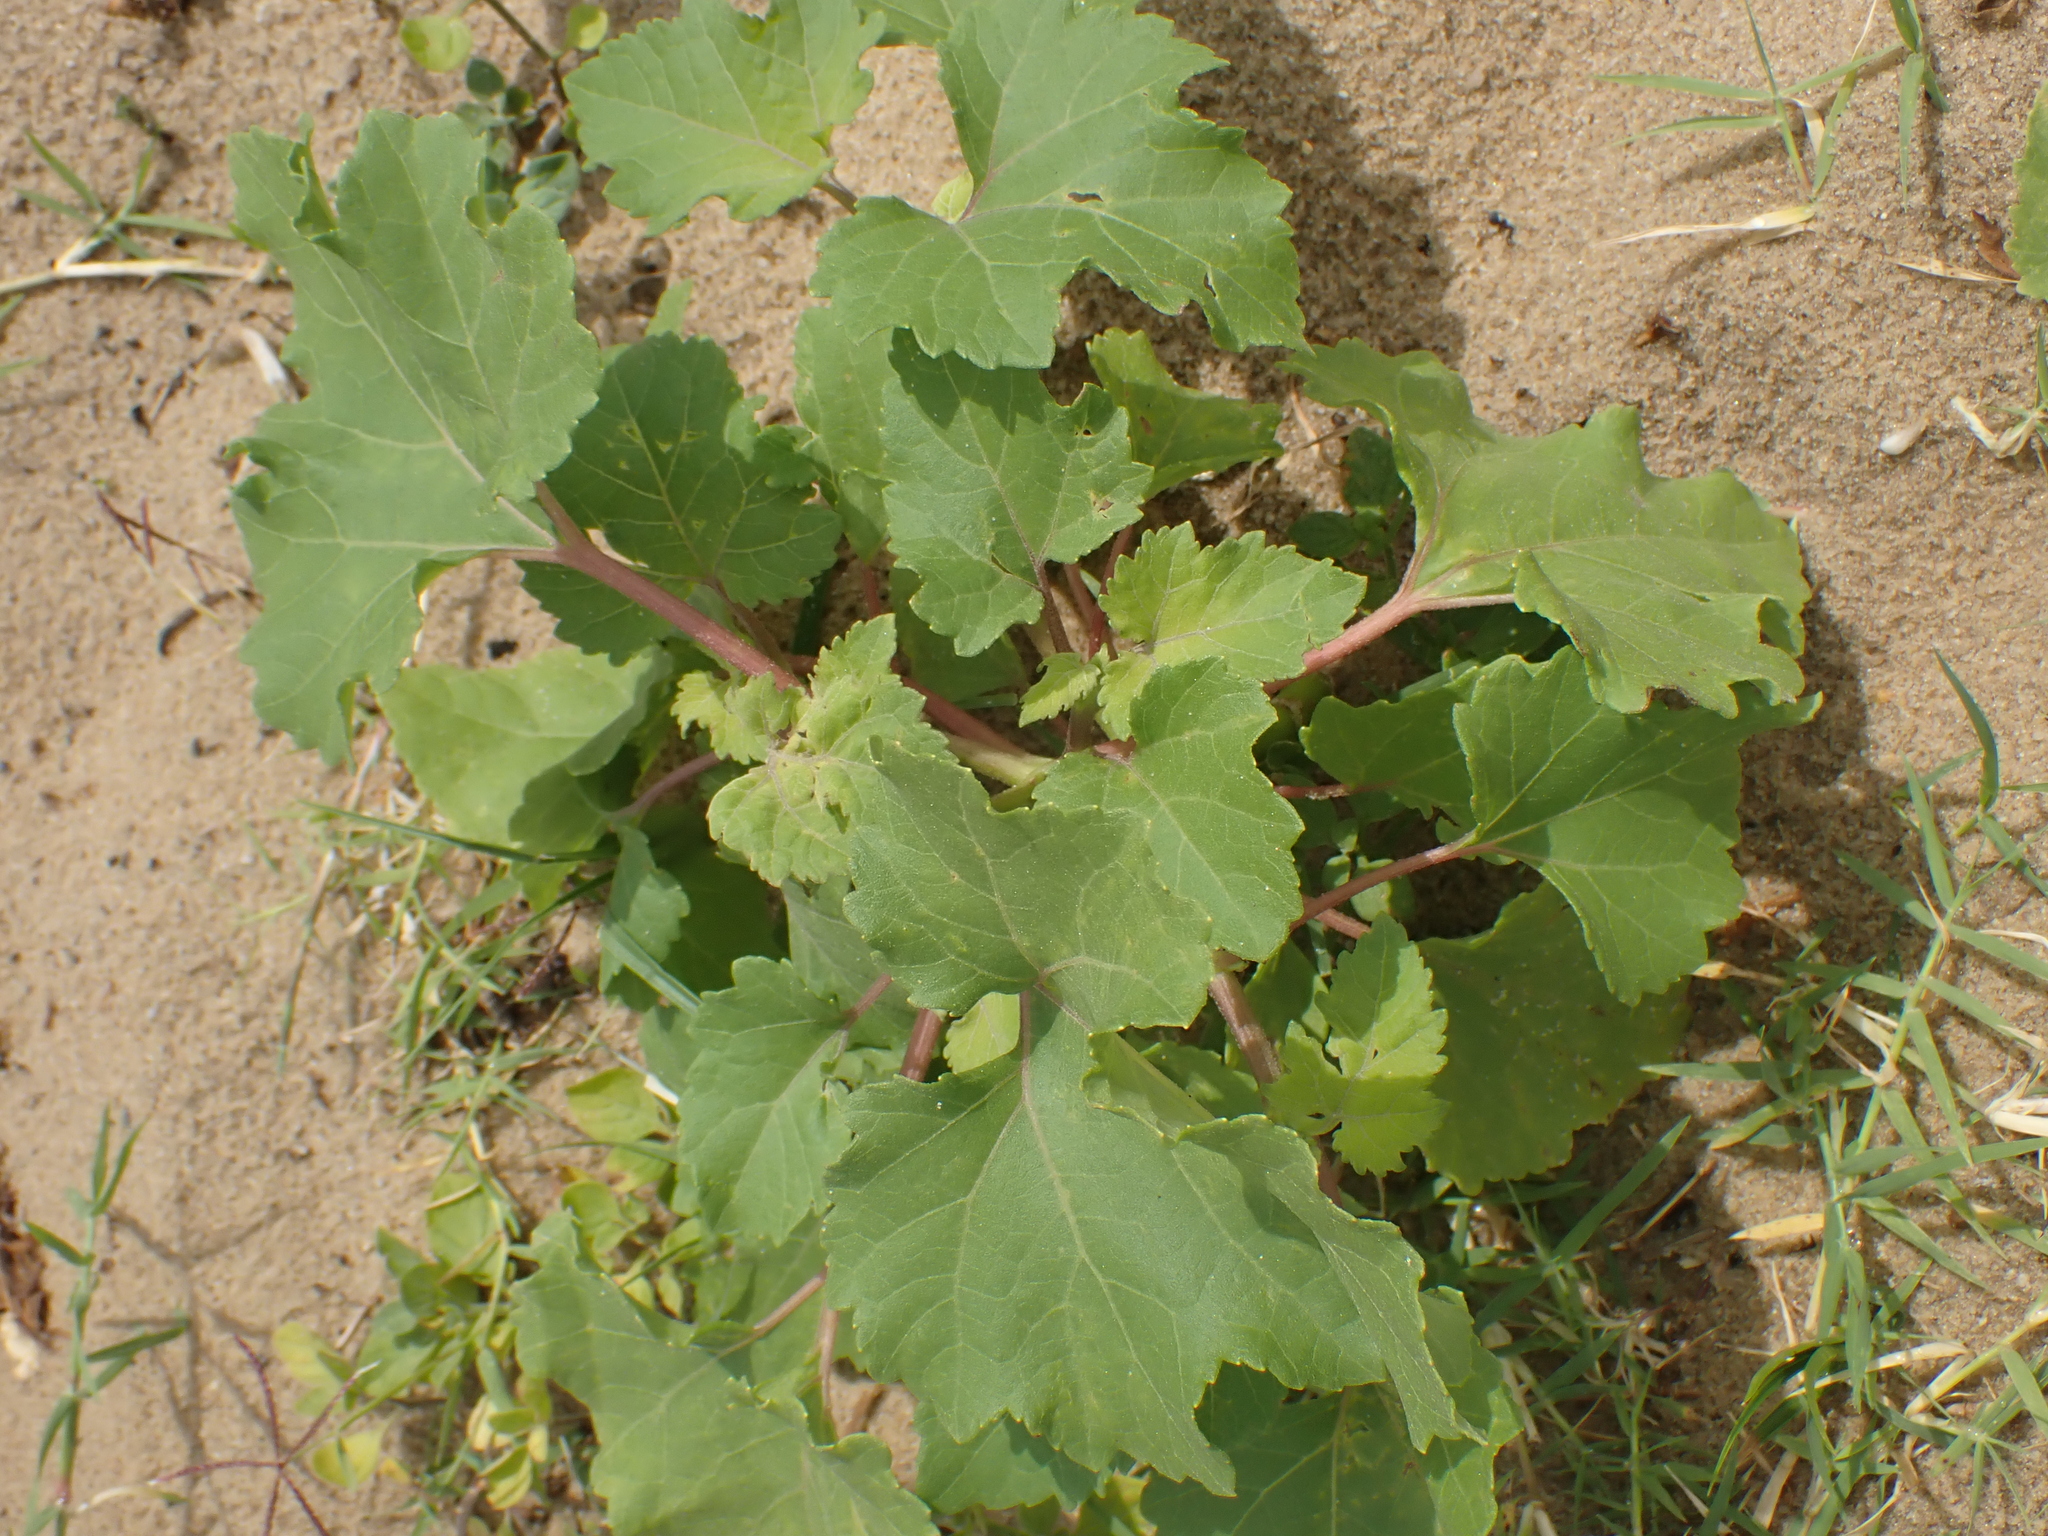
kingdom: Plantae
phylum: Tracheophyta
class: Magnoliopsida
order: Asterales
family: Asteraceae
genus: Xanthium
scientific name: Xanthium strumarium
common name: Rough cocklebur
